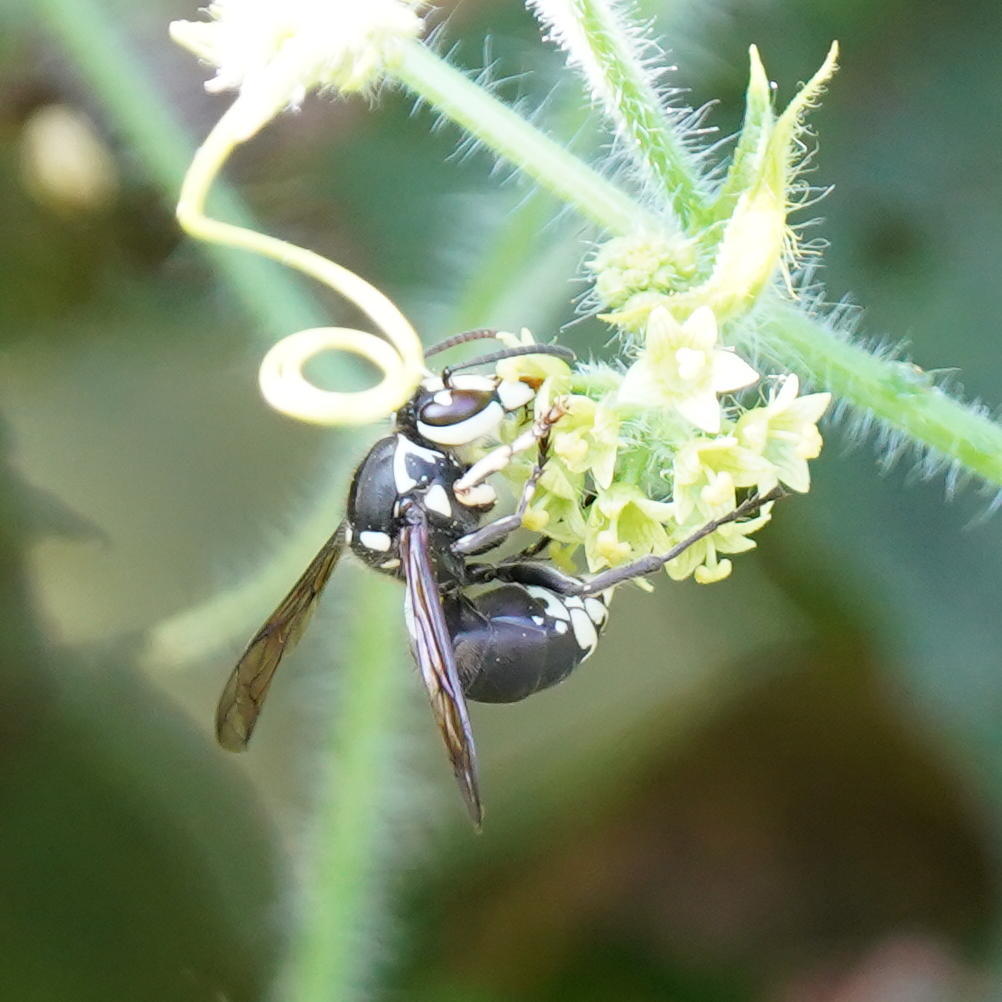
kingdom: Animalia
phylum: Arthropoda
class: Insecta
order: Hymenoptera
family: Vespidae
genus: Dolichovespula
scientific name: Dolichovespula maculata
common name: Bald-faced hornet
